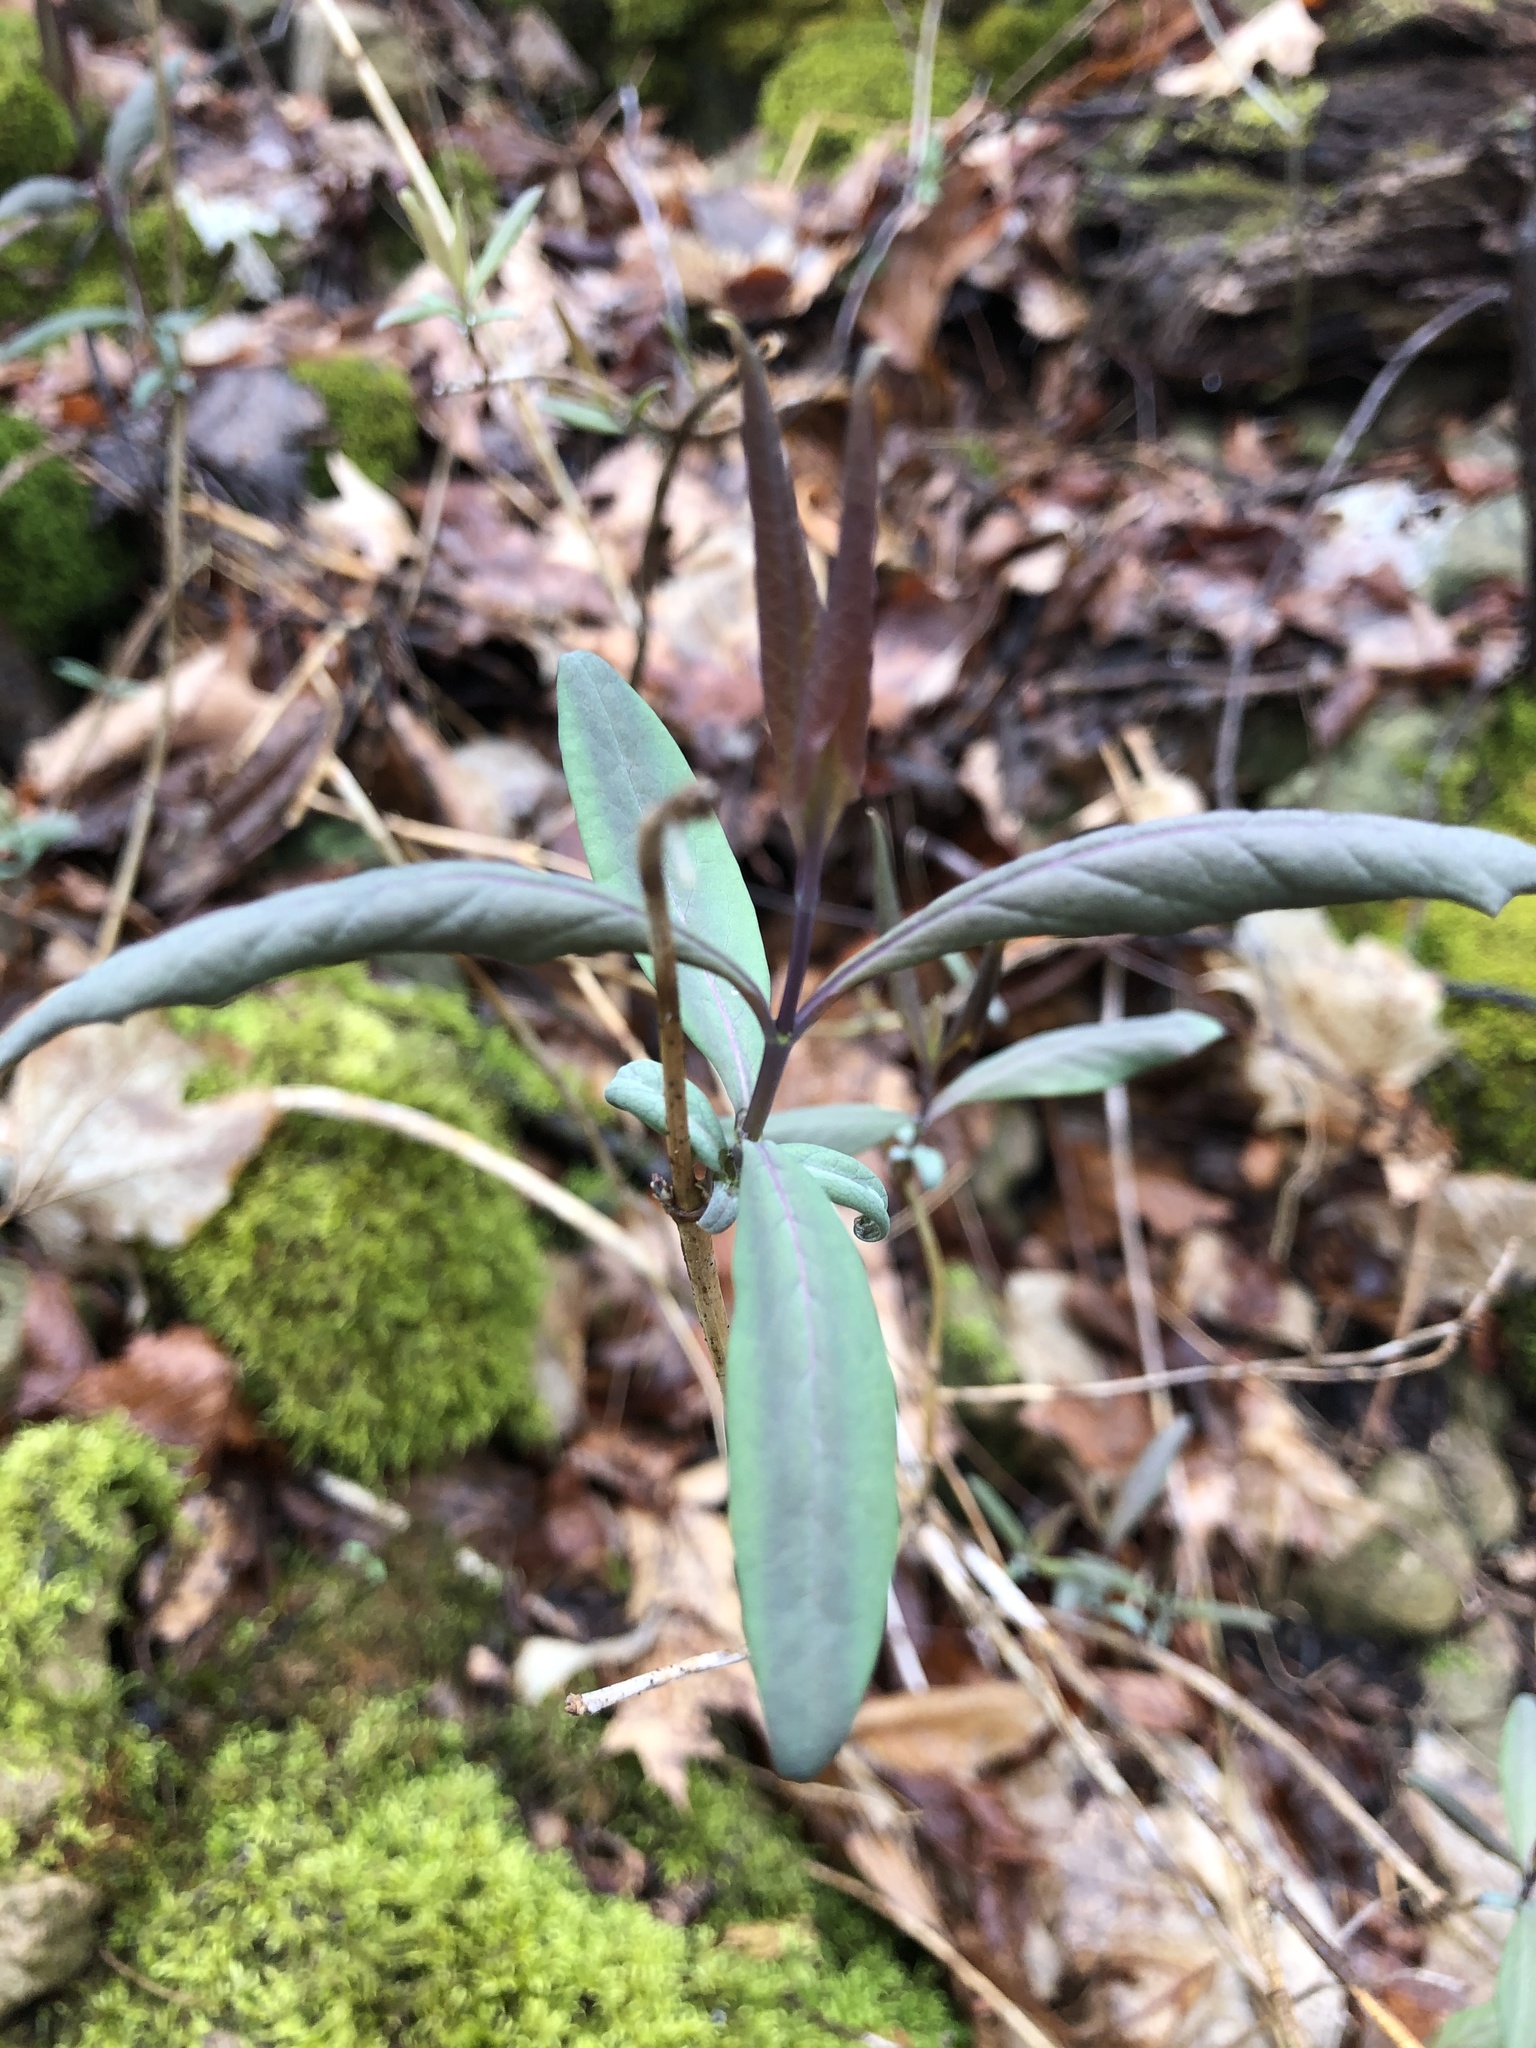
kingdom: Plantae
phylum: Tracheophyta
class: Magnoliopsida
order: Dipsacales
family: Caprifoliaceae
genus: Lonicera
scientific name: Lonicera dioica
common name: Limber honeysuckle
